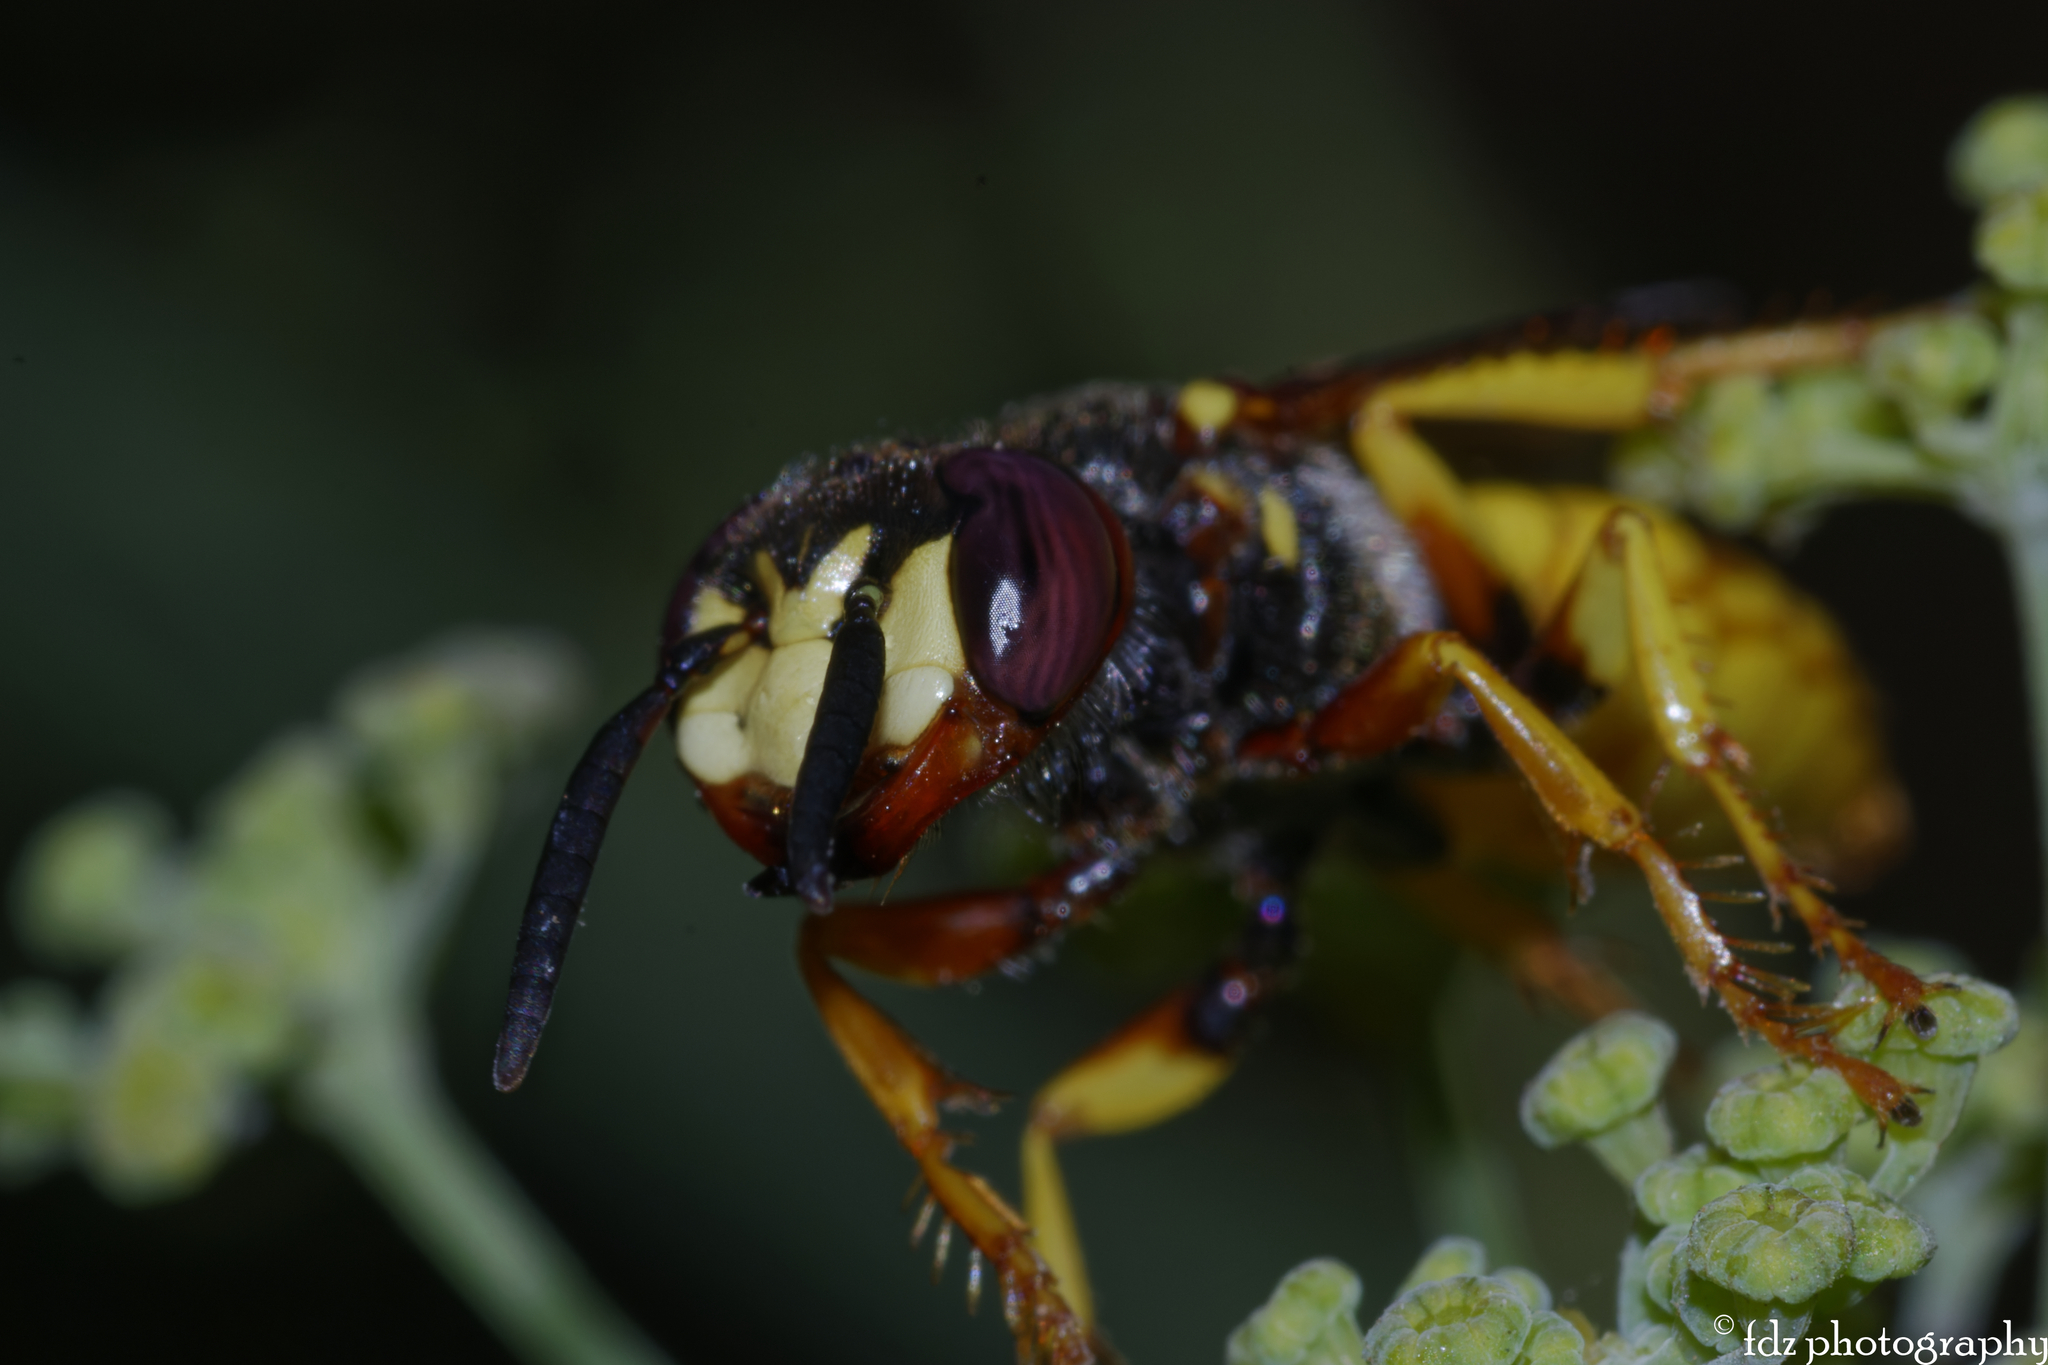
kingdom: Animalia
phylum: Arthropoda
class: Insecta
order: Hymenoptera
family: Crabronidae
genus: Philanthus
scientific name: Philanthus triangulum
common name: Bee wolf
